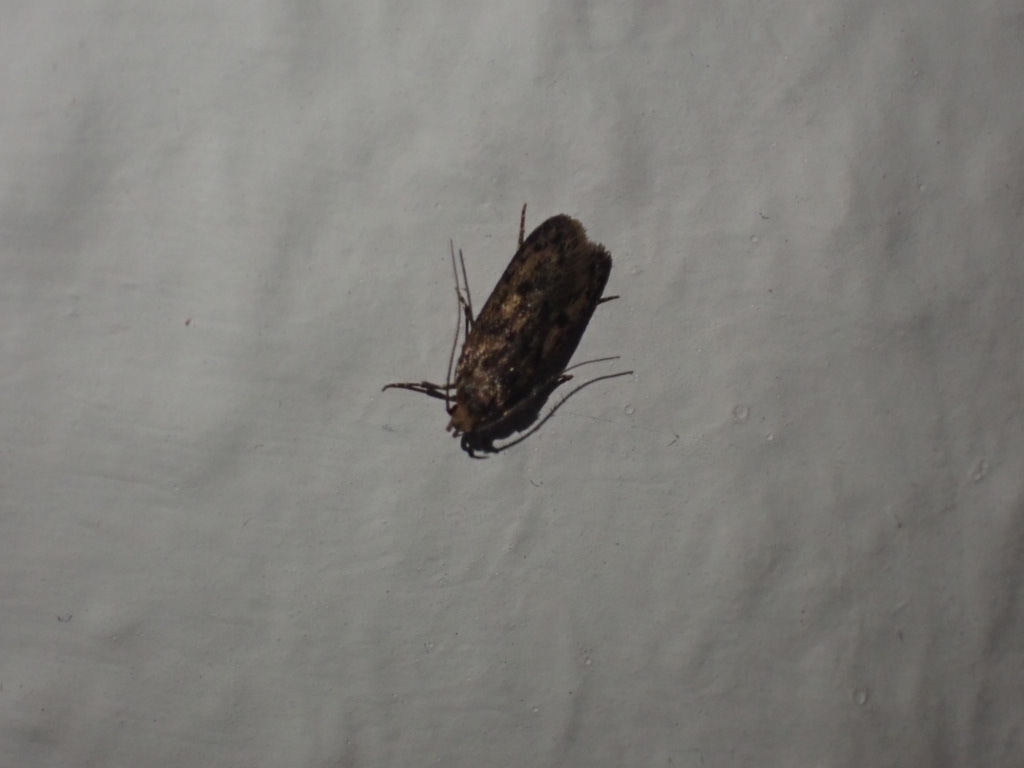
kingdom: Animalia
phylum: Arthropoda
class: Insecta
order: Lepidoptera
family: Oecophoridae
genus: Hofmannophila
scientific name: Hofmannophila pseudospretella
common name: Brown house moth
